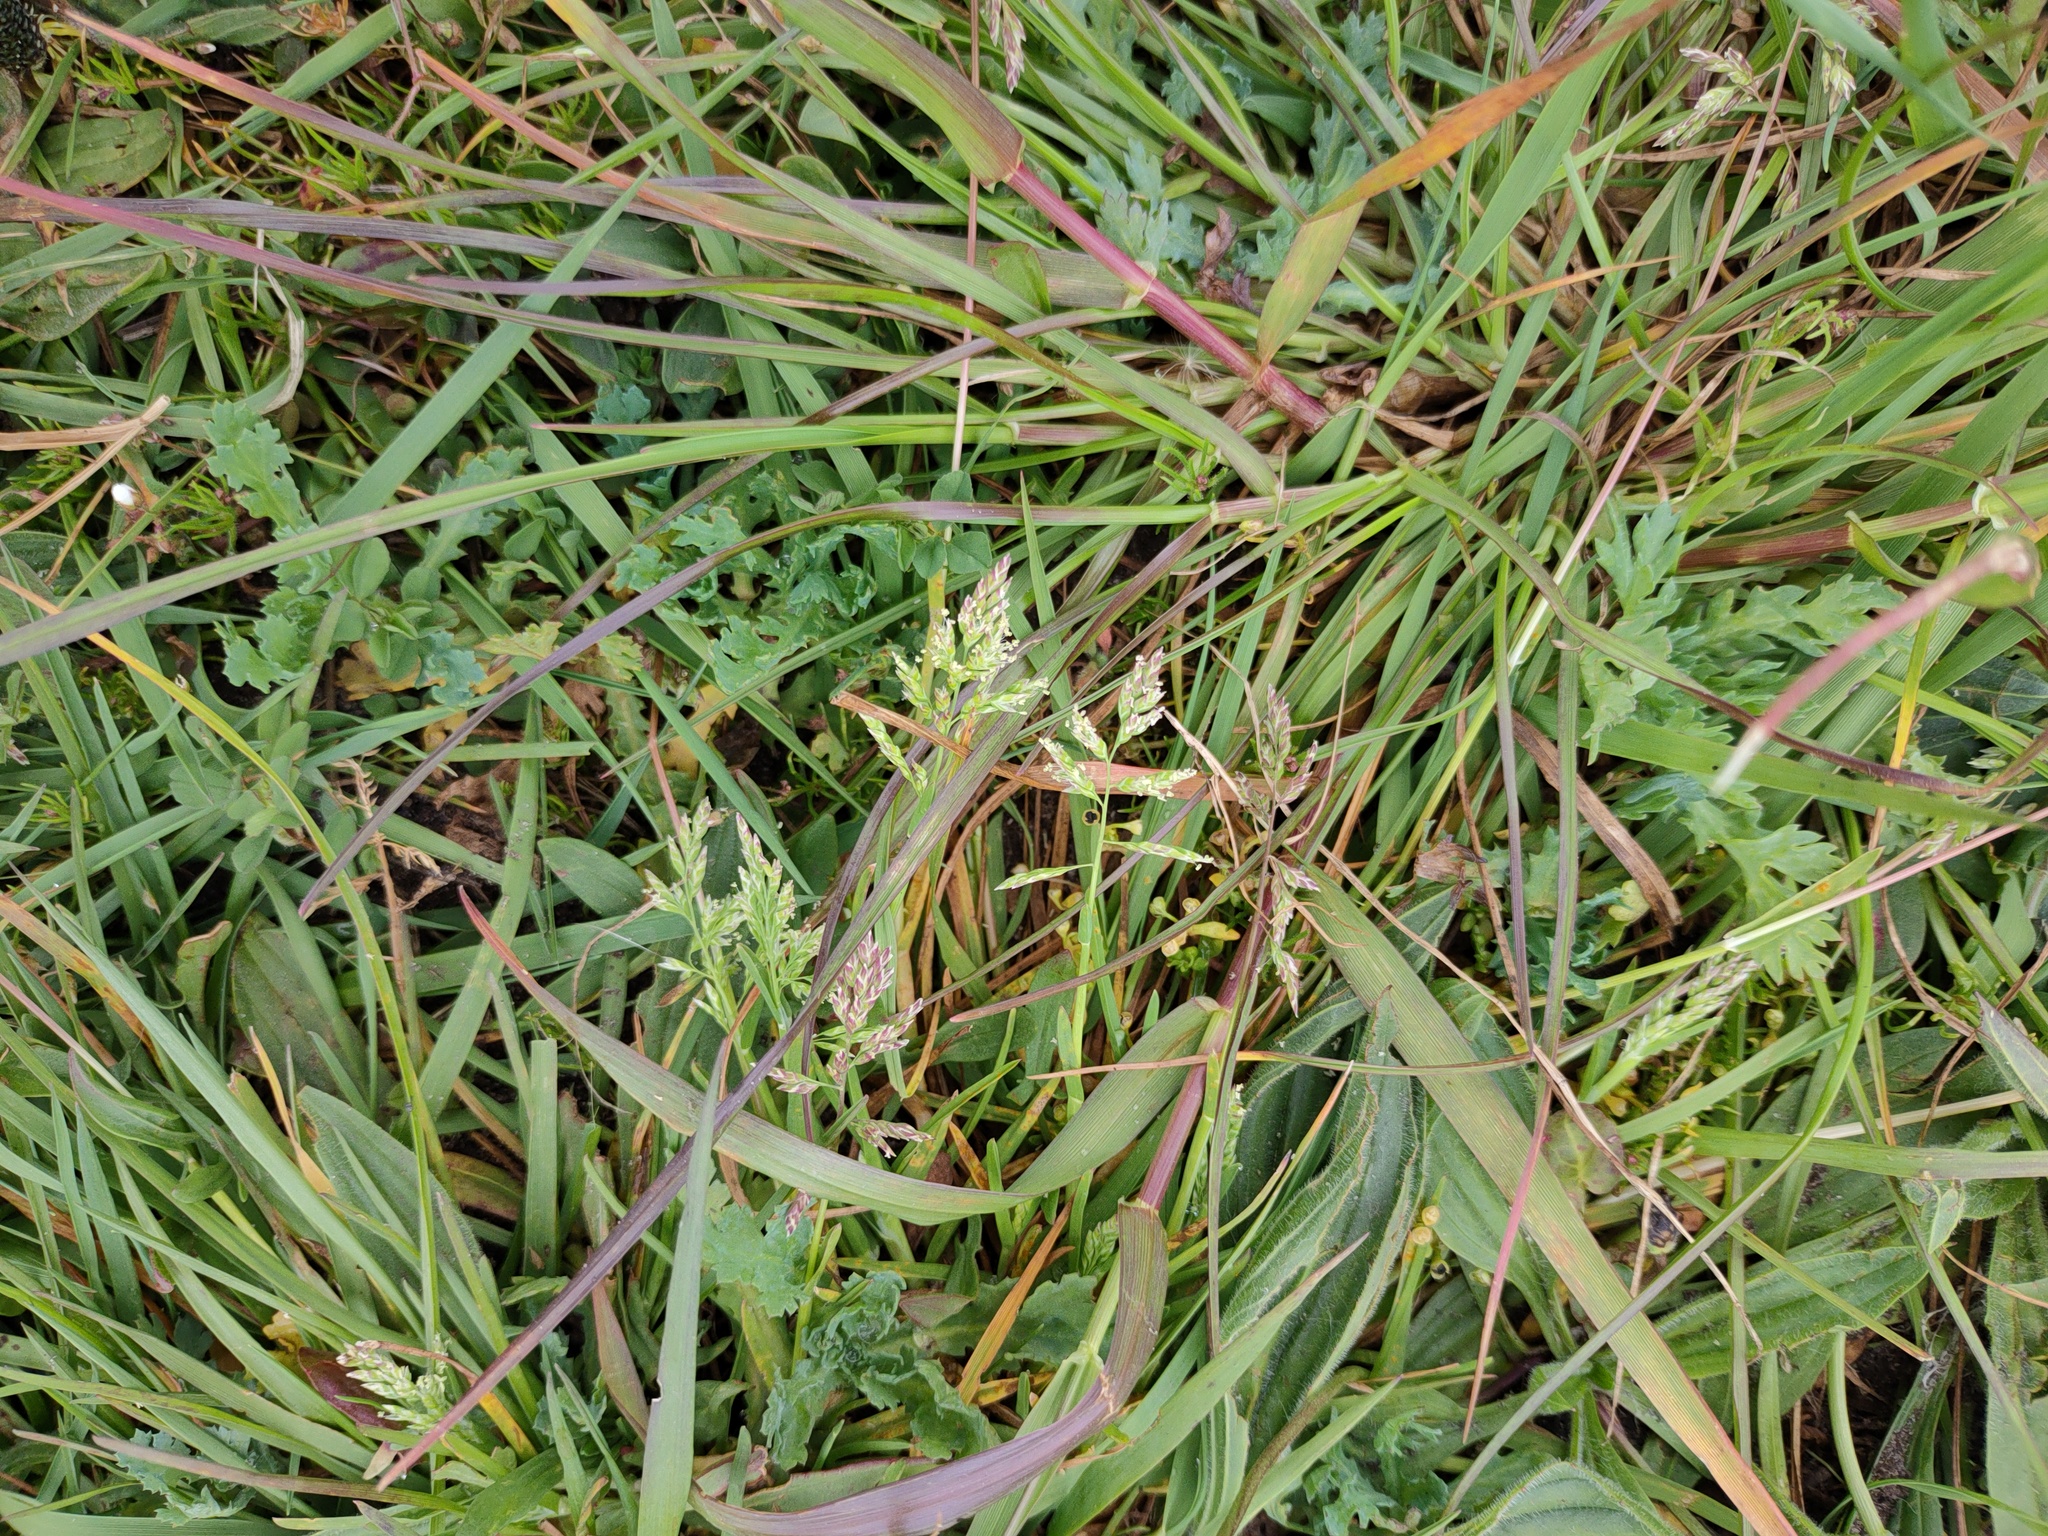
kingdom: Plantae
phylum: Tracheophyta
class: Liliopsida
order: Poales
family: Poaceae
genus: Poa
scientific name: Poa annua
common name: Annual bluegrass
